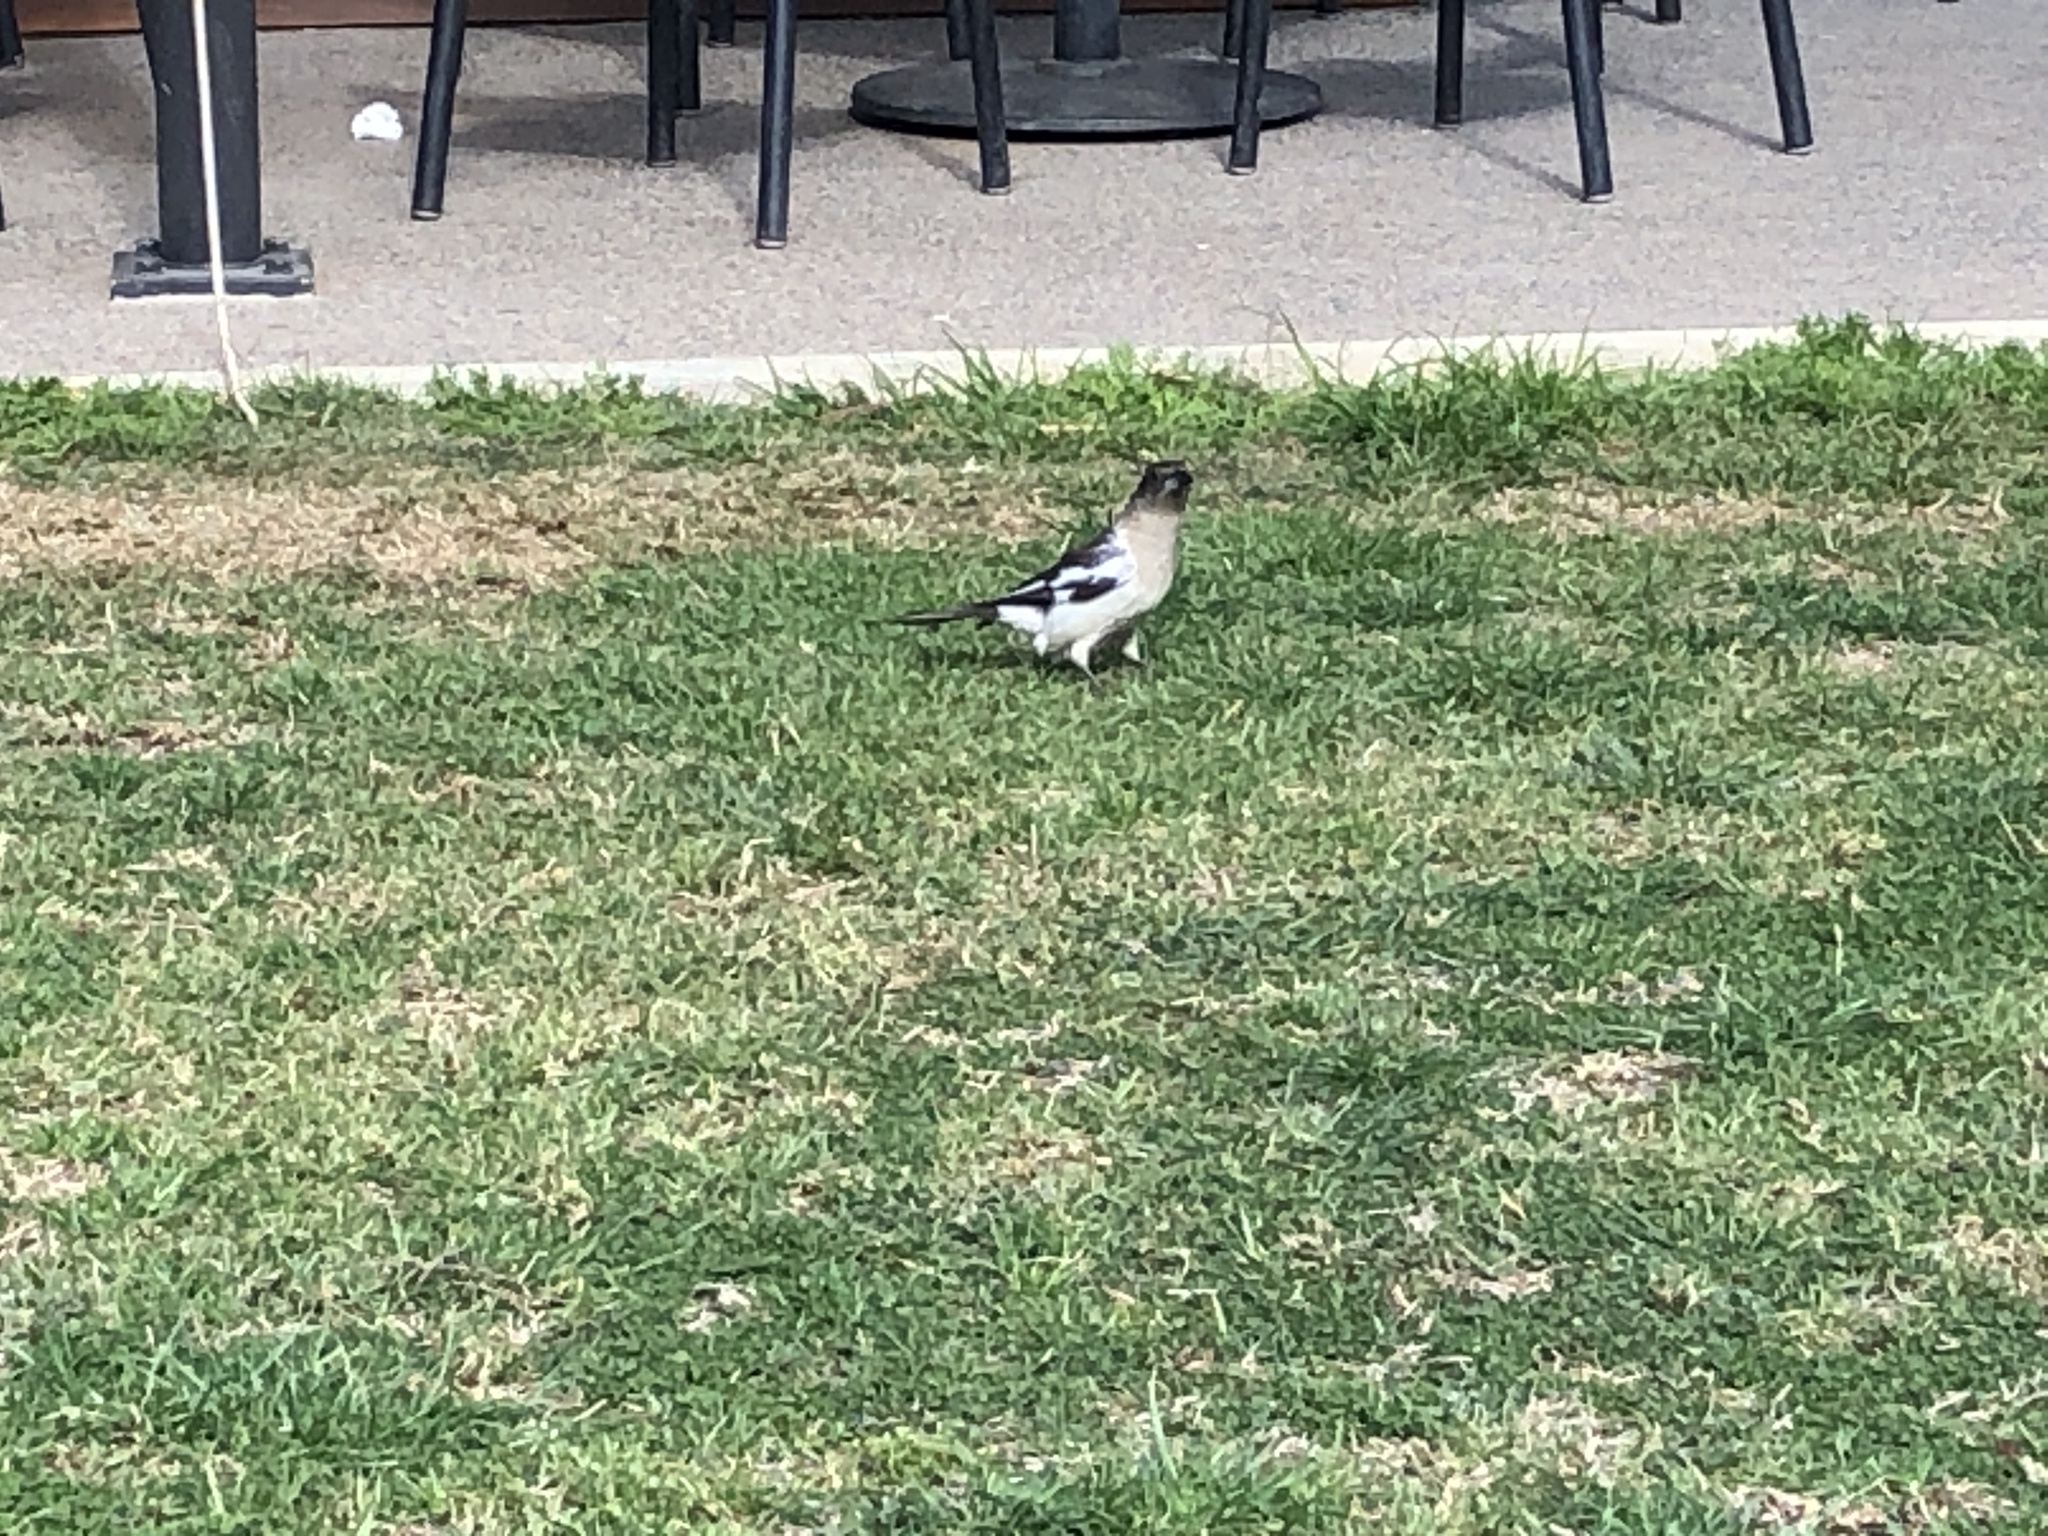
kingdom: Animalia
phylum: Chordata
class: Aves
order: Passeriformes
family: Cracticidae
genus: Cracticus
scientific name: Cracticus nigrogularis
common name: Pied butcherbird
